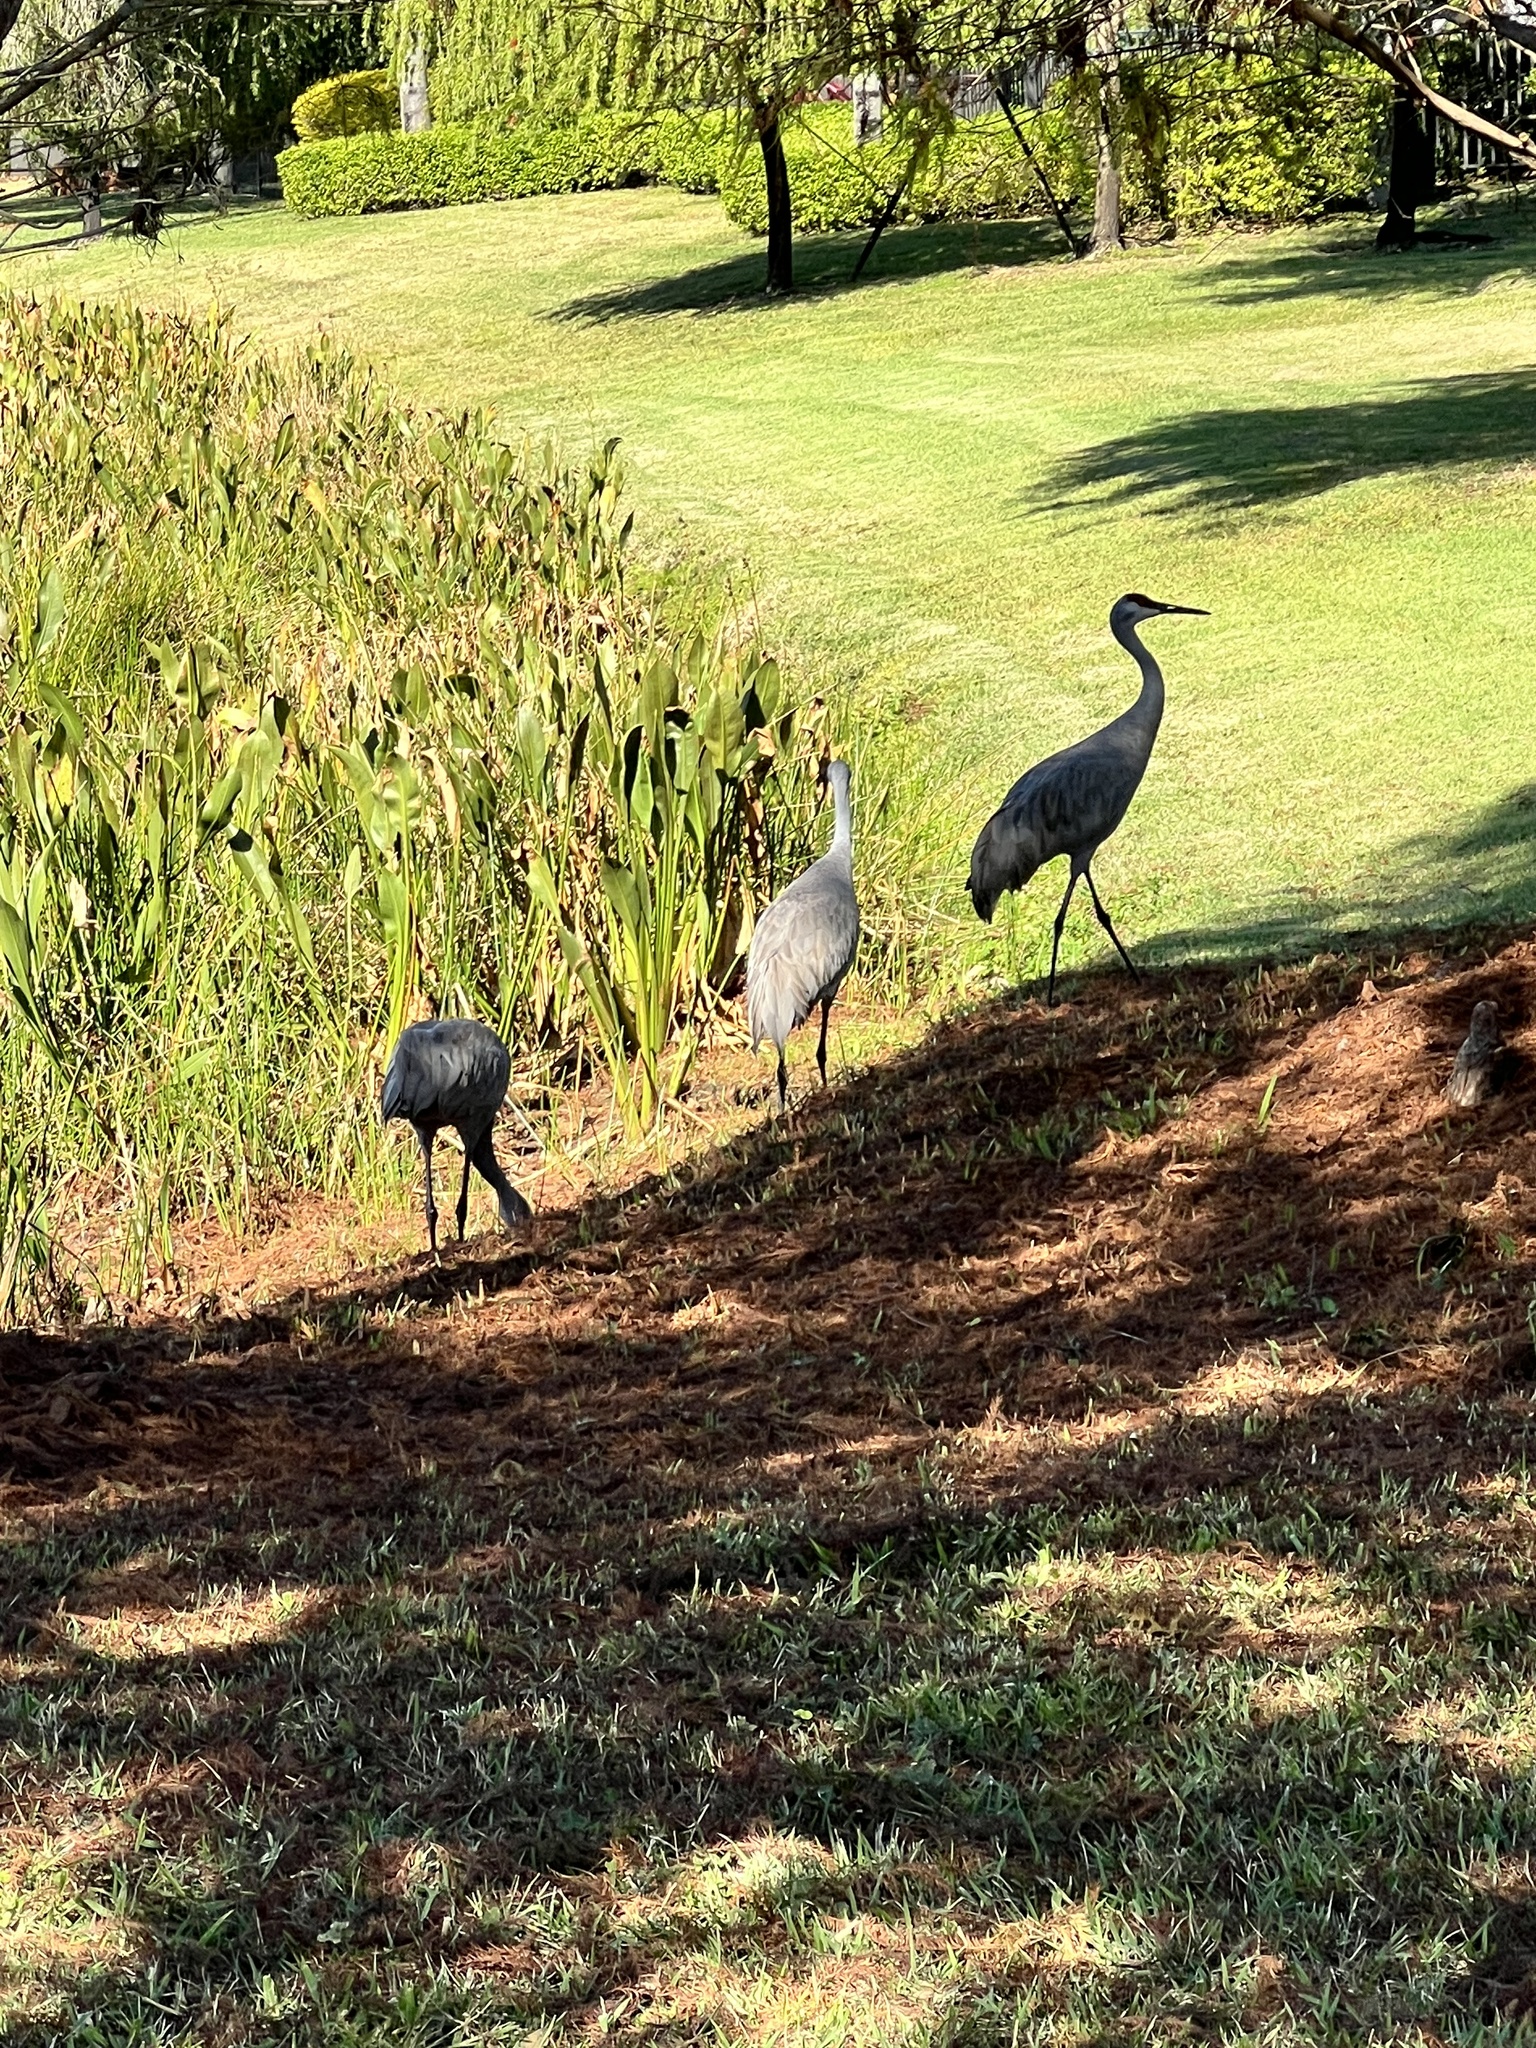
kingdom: Animalia
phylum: Chordata
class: Aves
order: Gruiformes
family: Gruidae
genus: Grus
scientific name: Grus canadensis
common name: Sandhill crane
